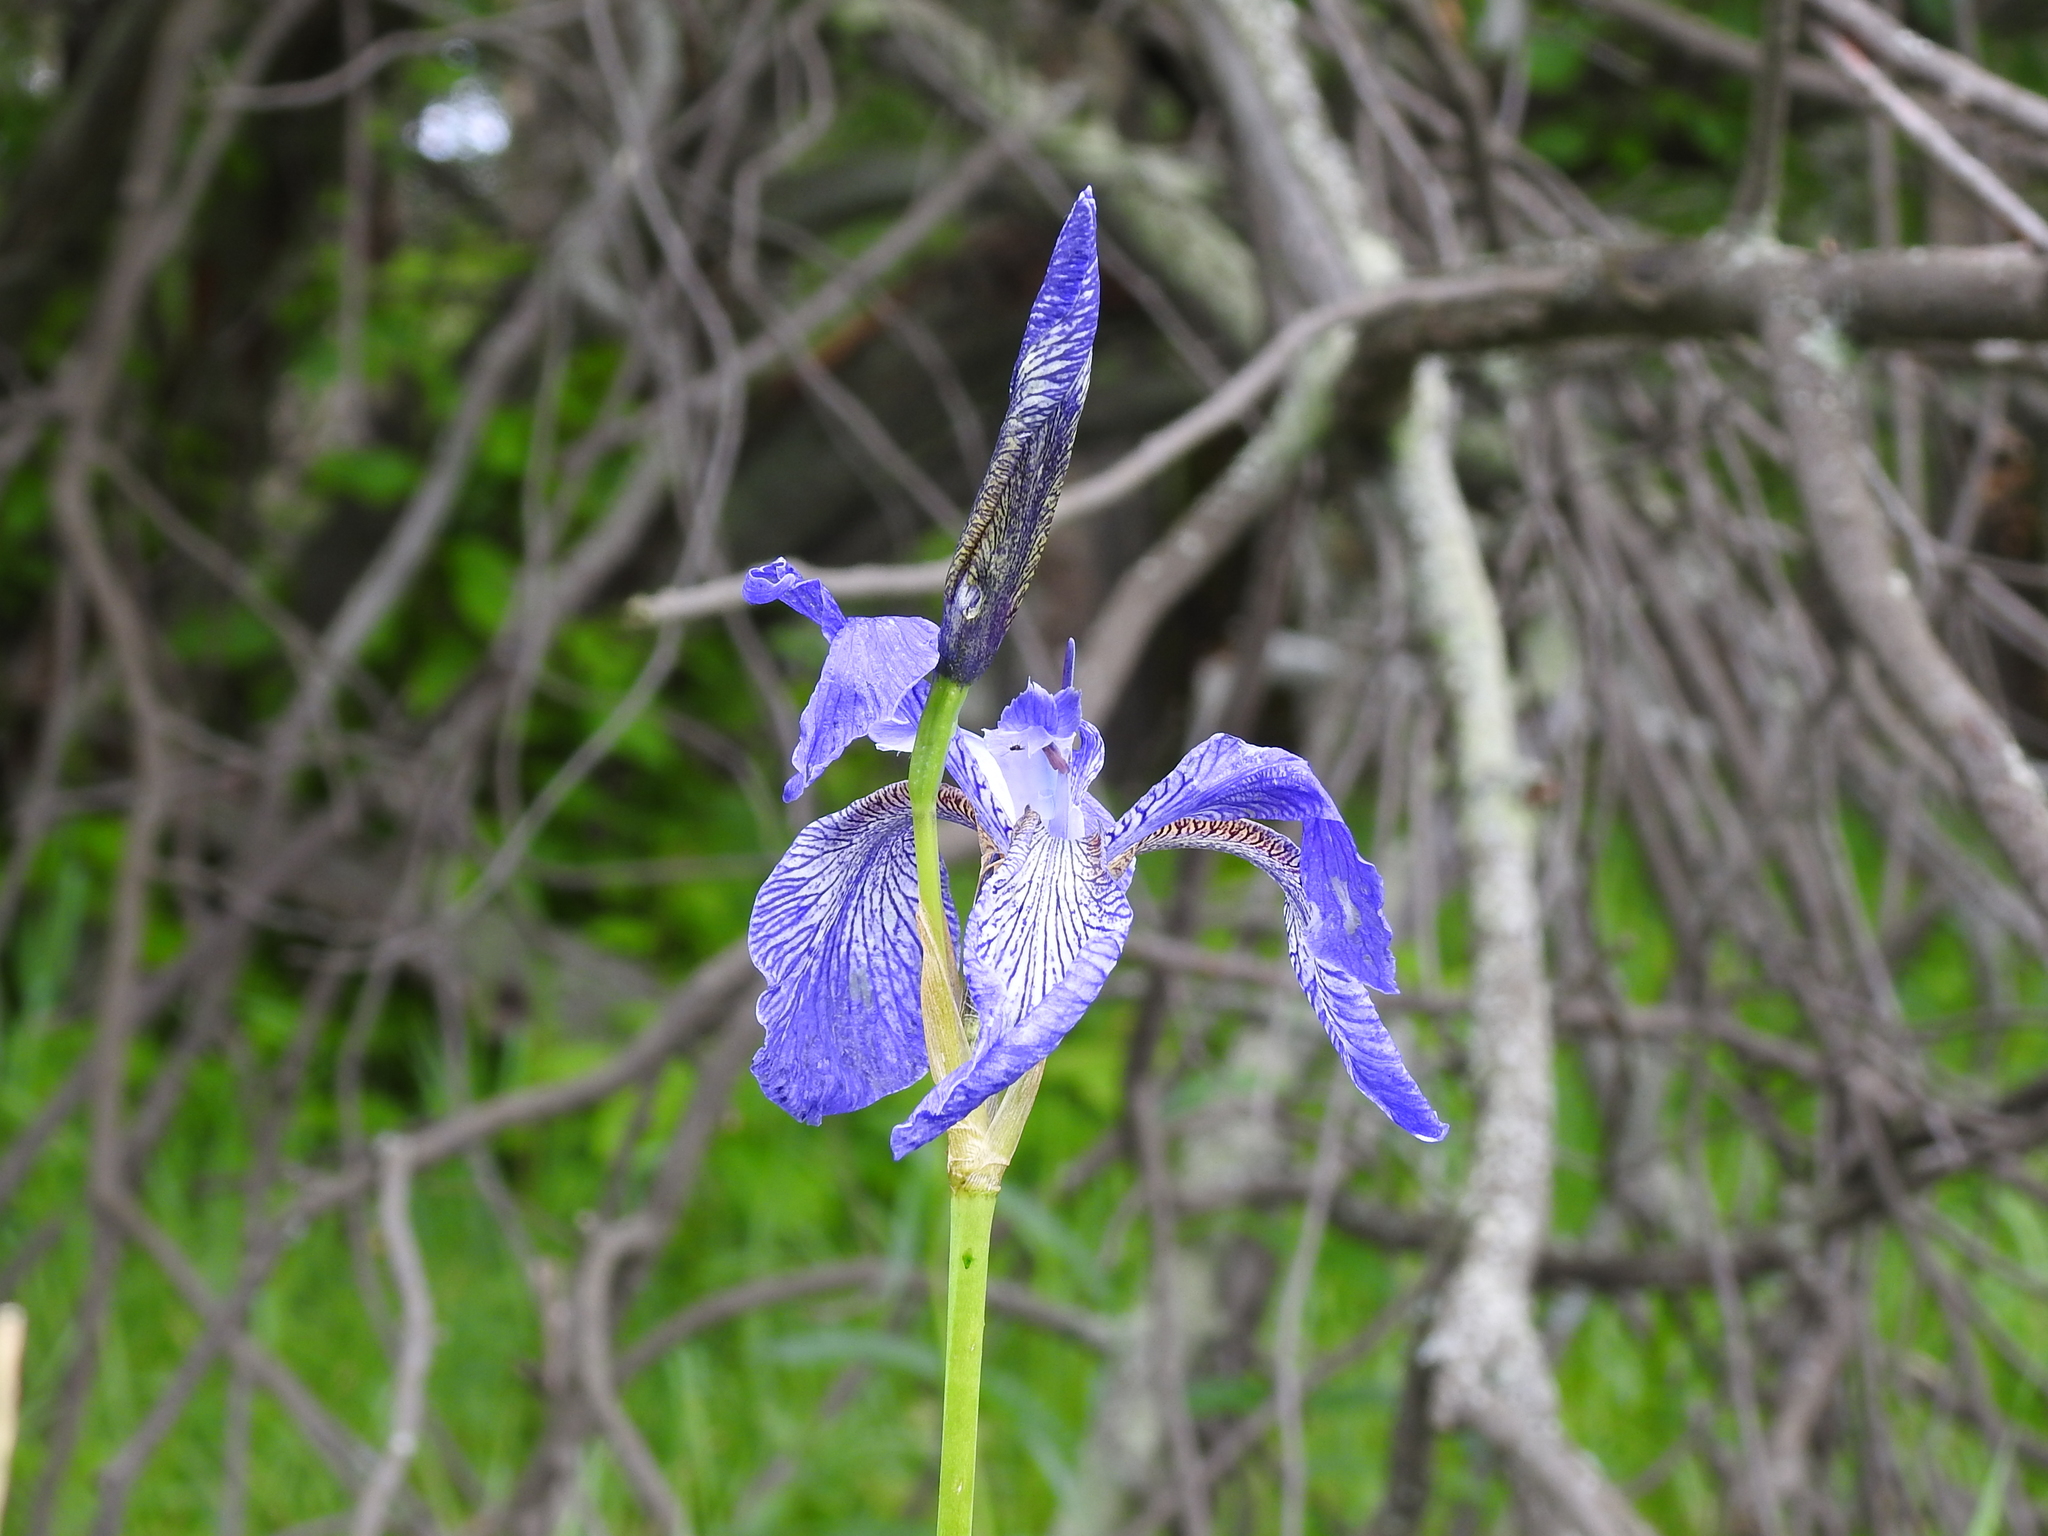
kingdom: Plantae
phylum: Tracheophyta
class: Liliopsida
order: Asparagales
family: Iridaceae
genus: Iris
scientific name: Iris sibirica
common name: Siberian iris
